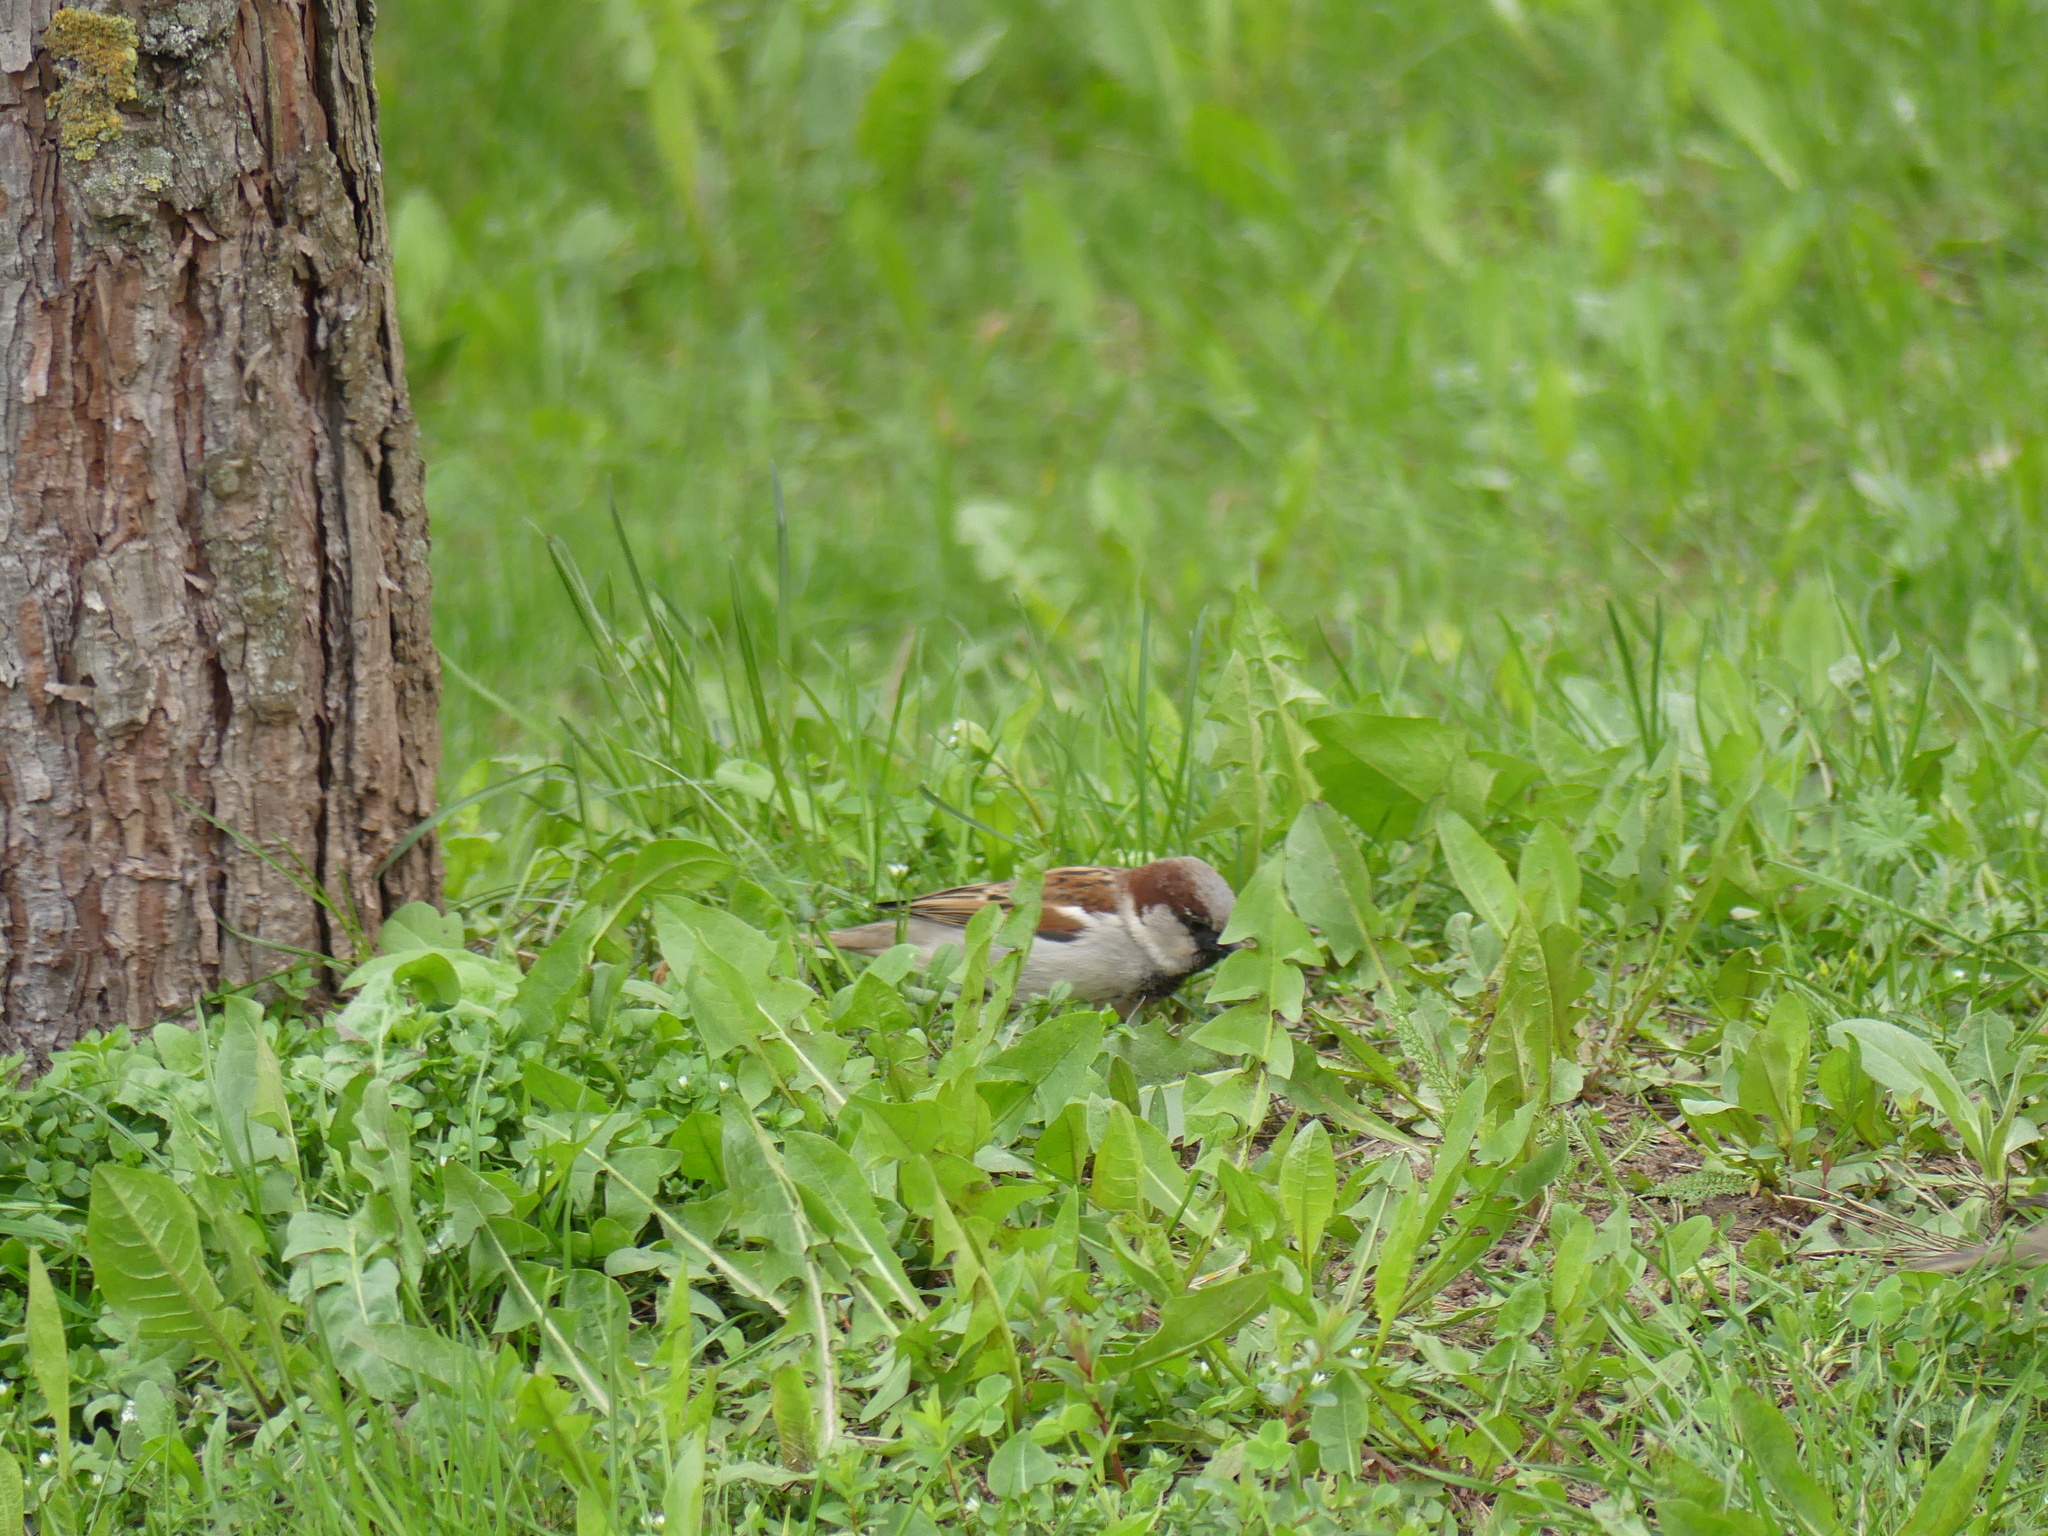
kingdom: Animalia
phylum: Chordata
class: Aves
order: Passeriformes
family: Passeridae
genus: Passer
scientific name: Passer domesticus
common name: House sparrow
